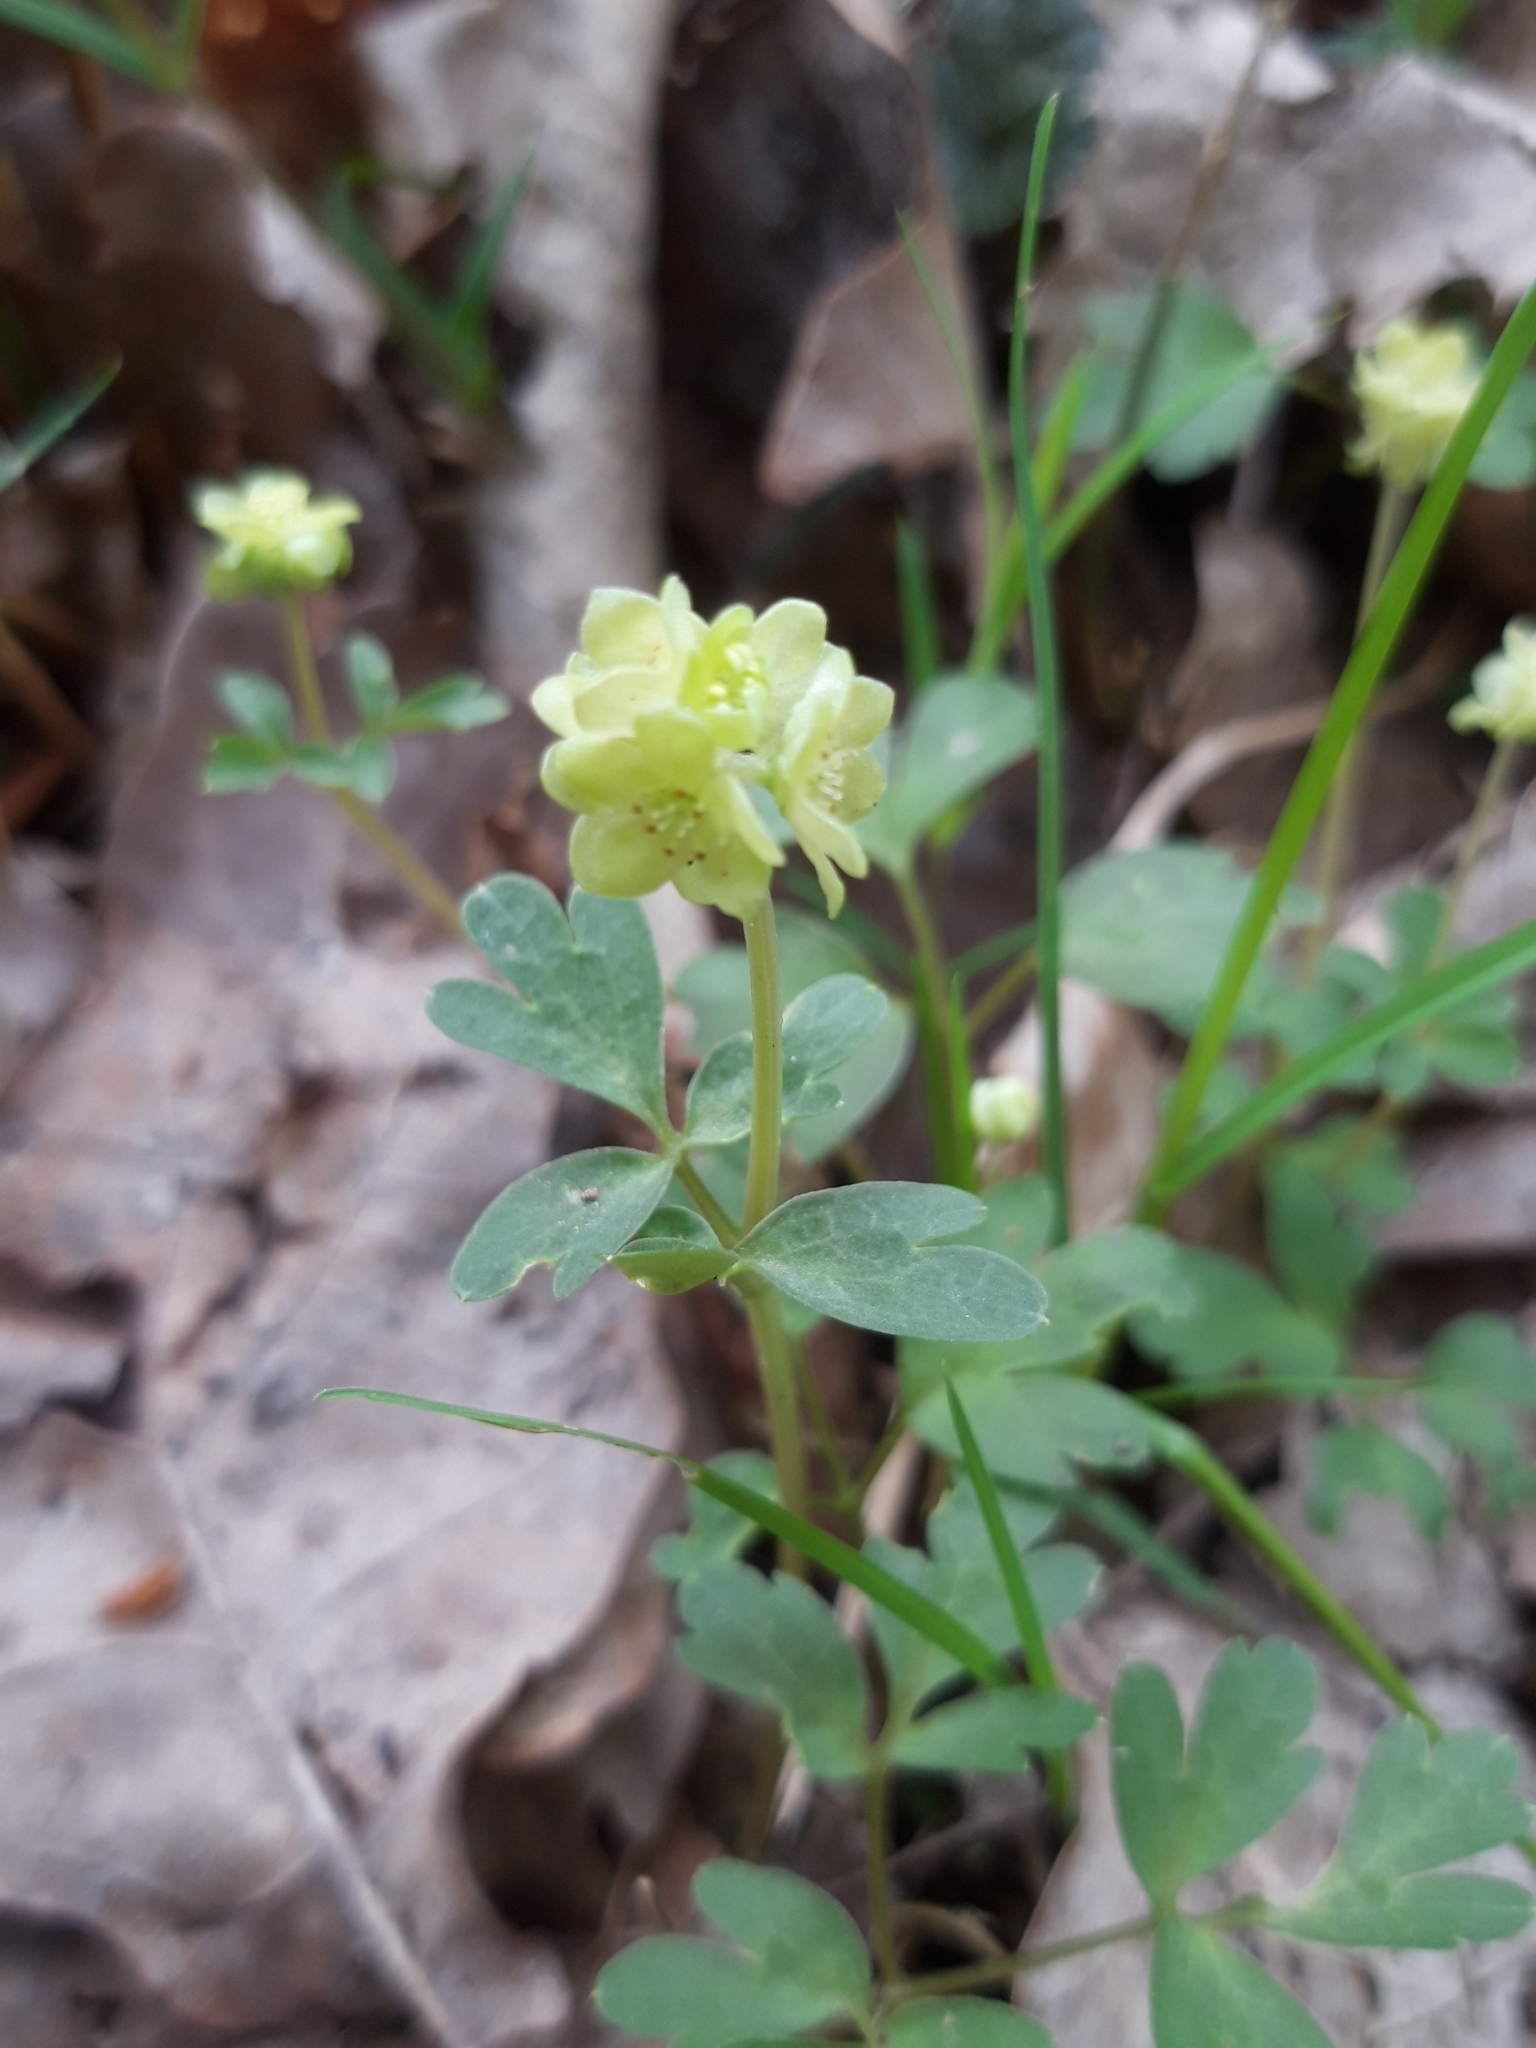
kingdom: Plantae
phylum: Tracheophyta
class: Magnoliopsida
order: Dipsacales
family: Viburnaceae
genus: Adoxa
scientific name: Adoxa moschatellina
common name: Moschatel
